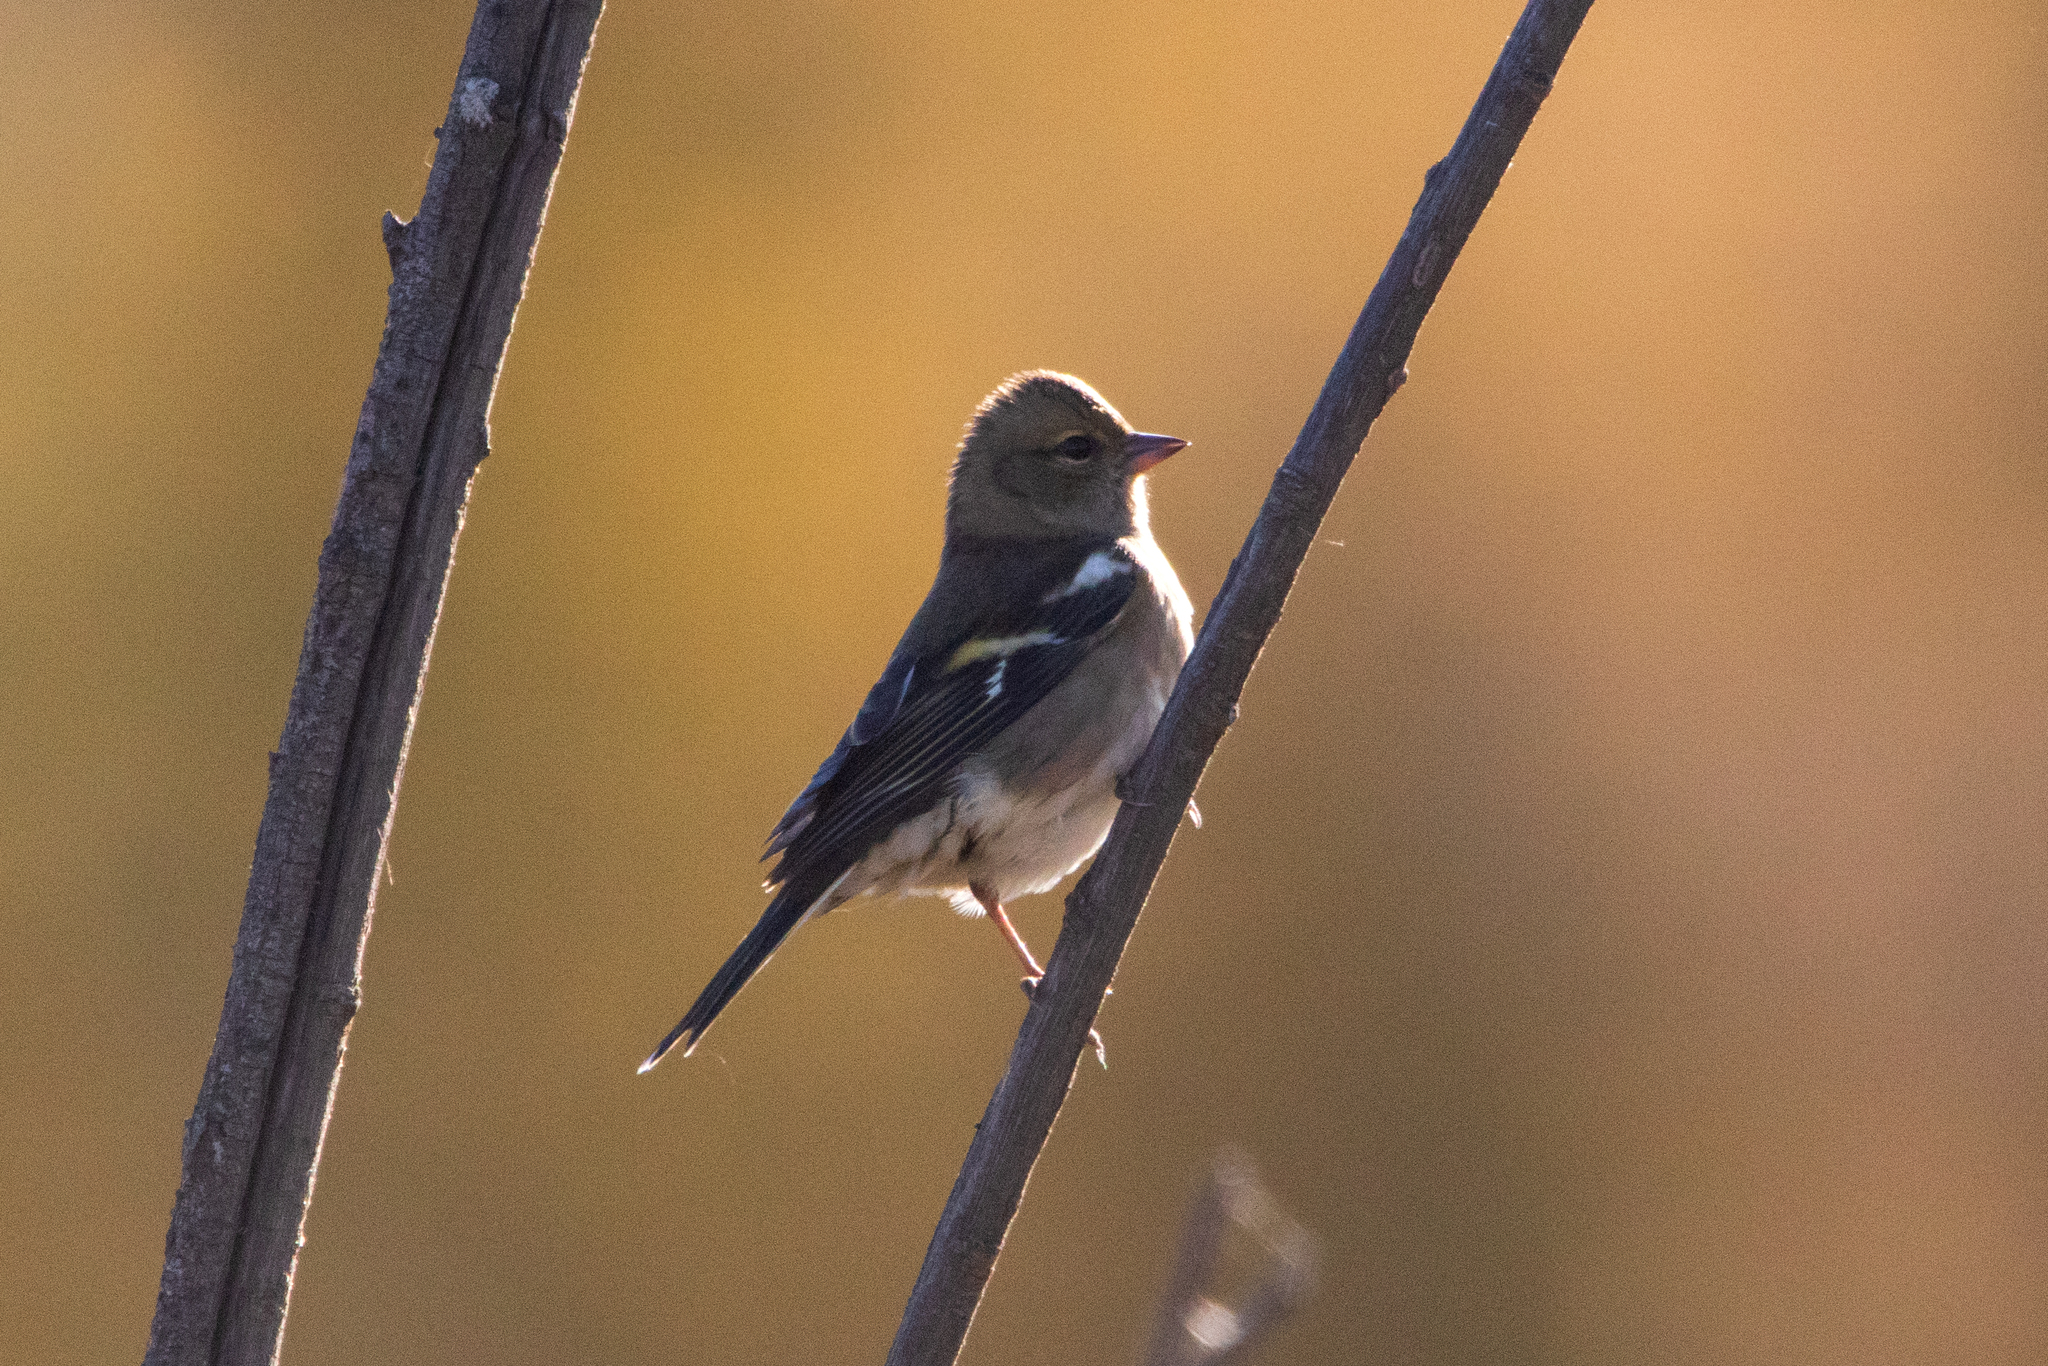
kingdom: Animalia
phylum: Chordata
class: Aves
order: Passeriformes
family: Fringillidae
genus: Fringilla
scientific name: Fringilla coelebs
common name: Common chaffinch
